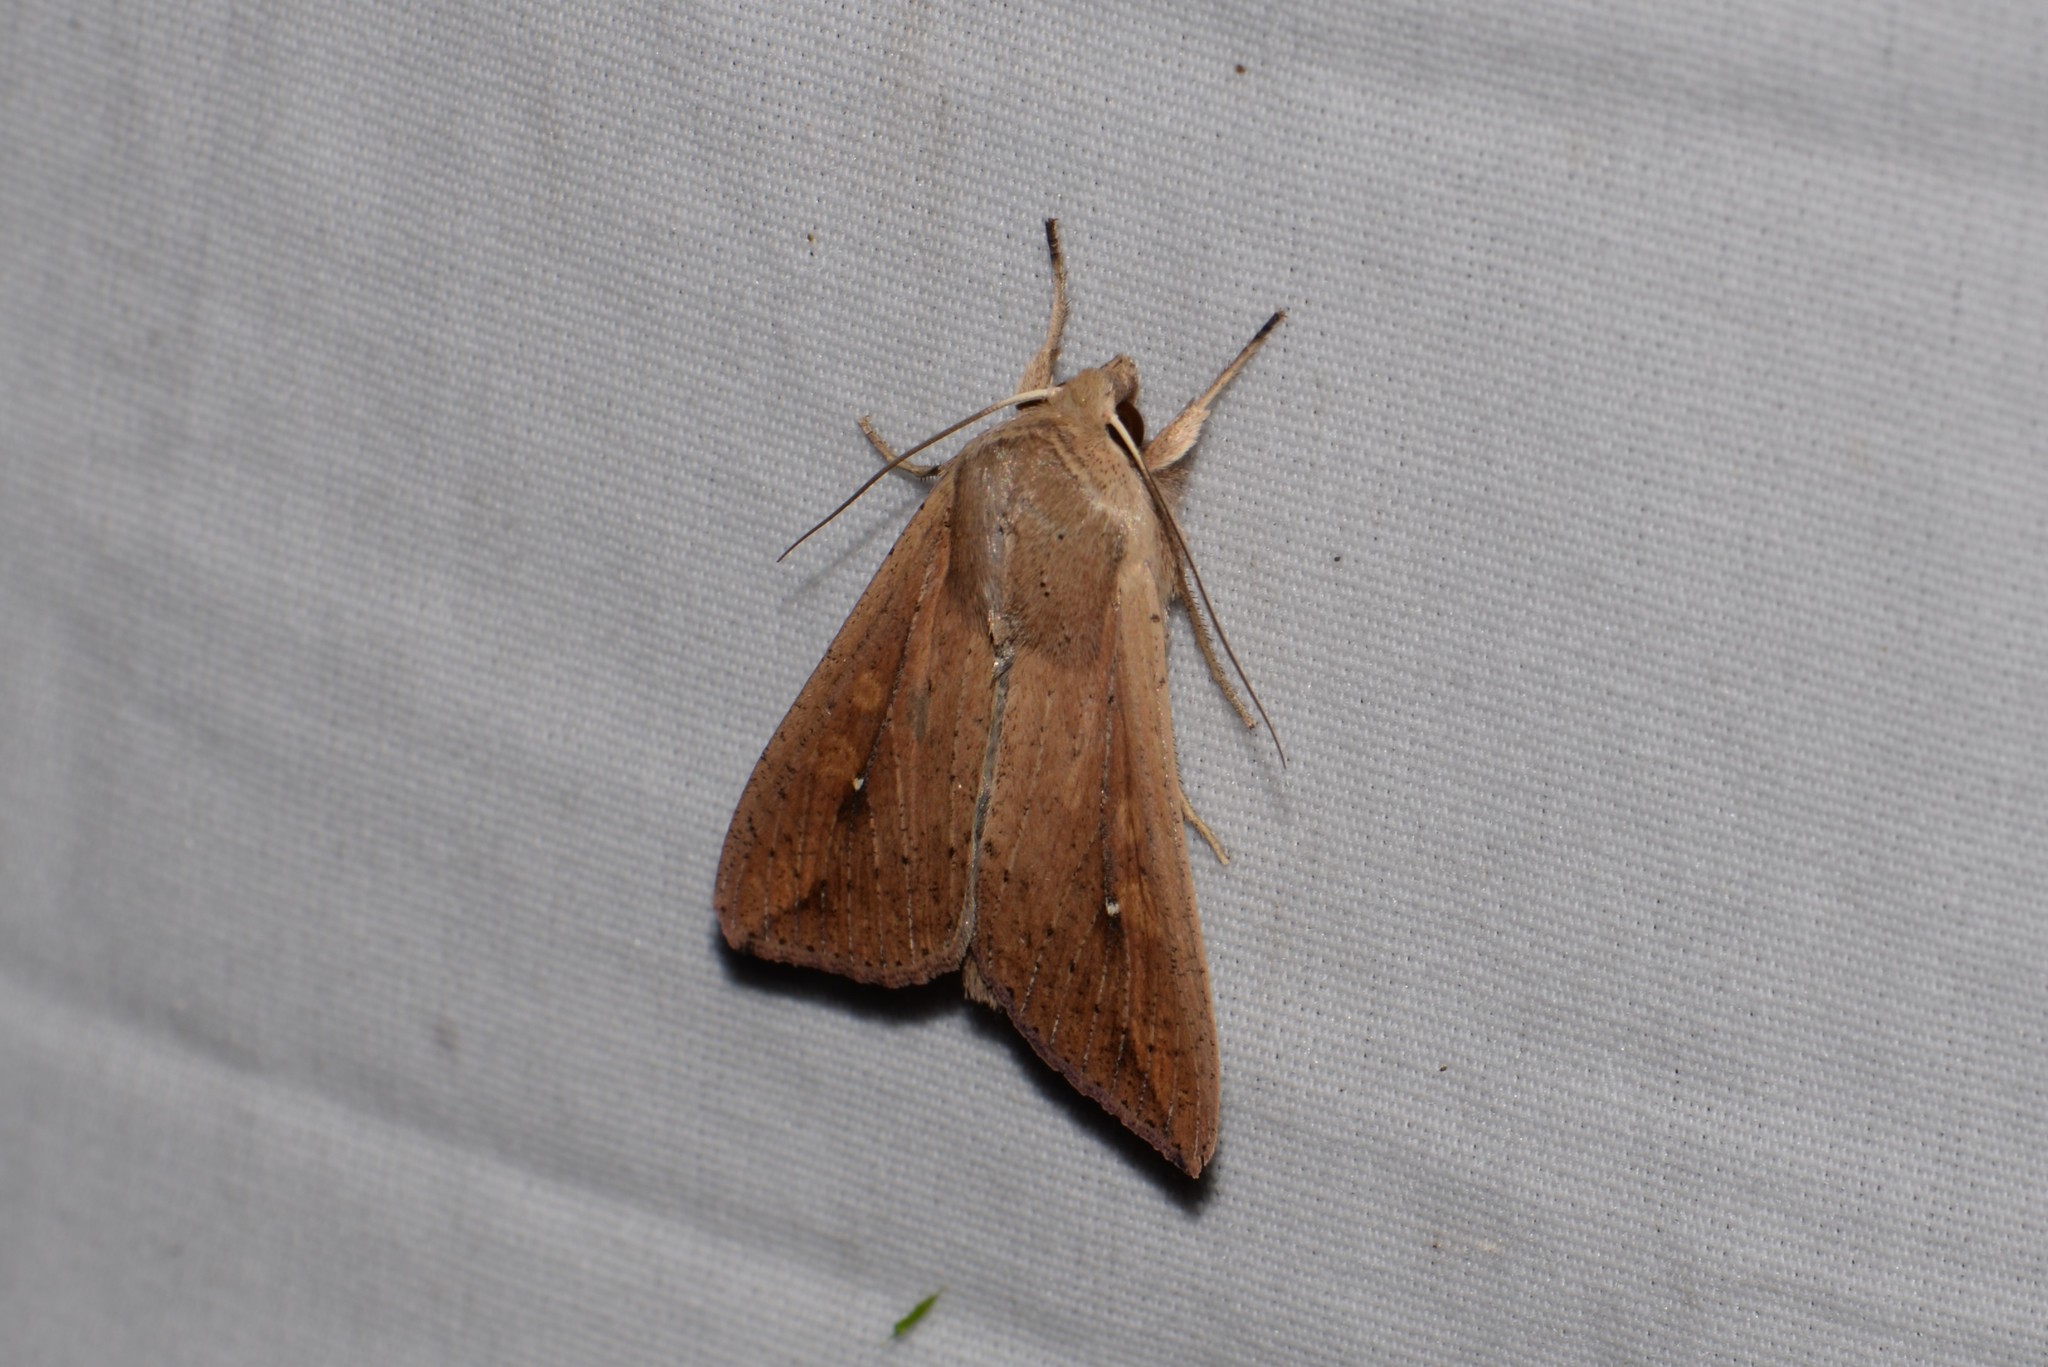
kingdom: Animalia
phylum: Arthropoda
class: Insecta
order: Lepidoptera
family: Noctuidae
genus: Mythimna
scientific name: Mythimna unipuncta
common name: White-speck
